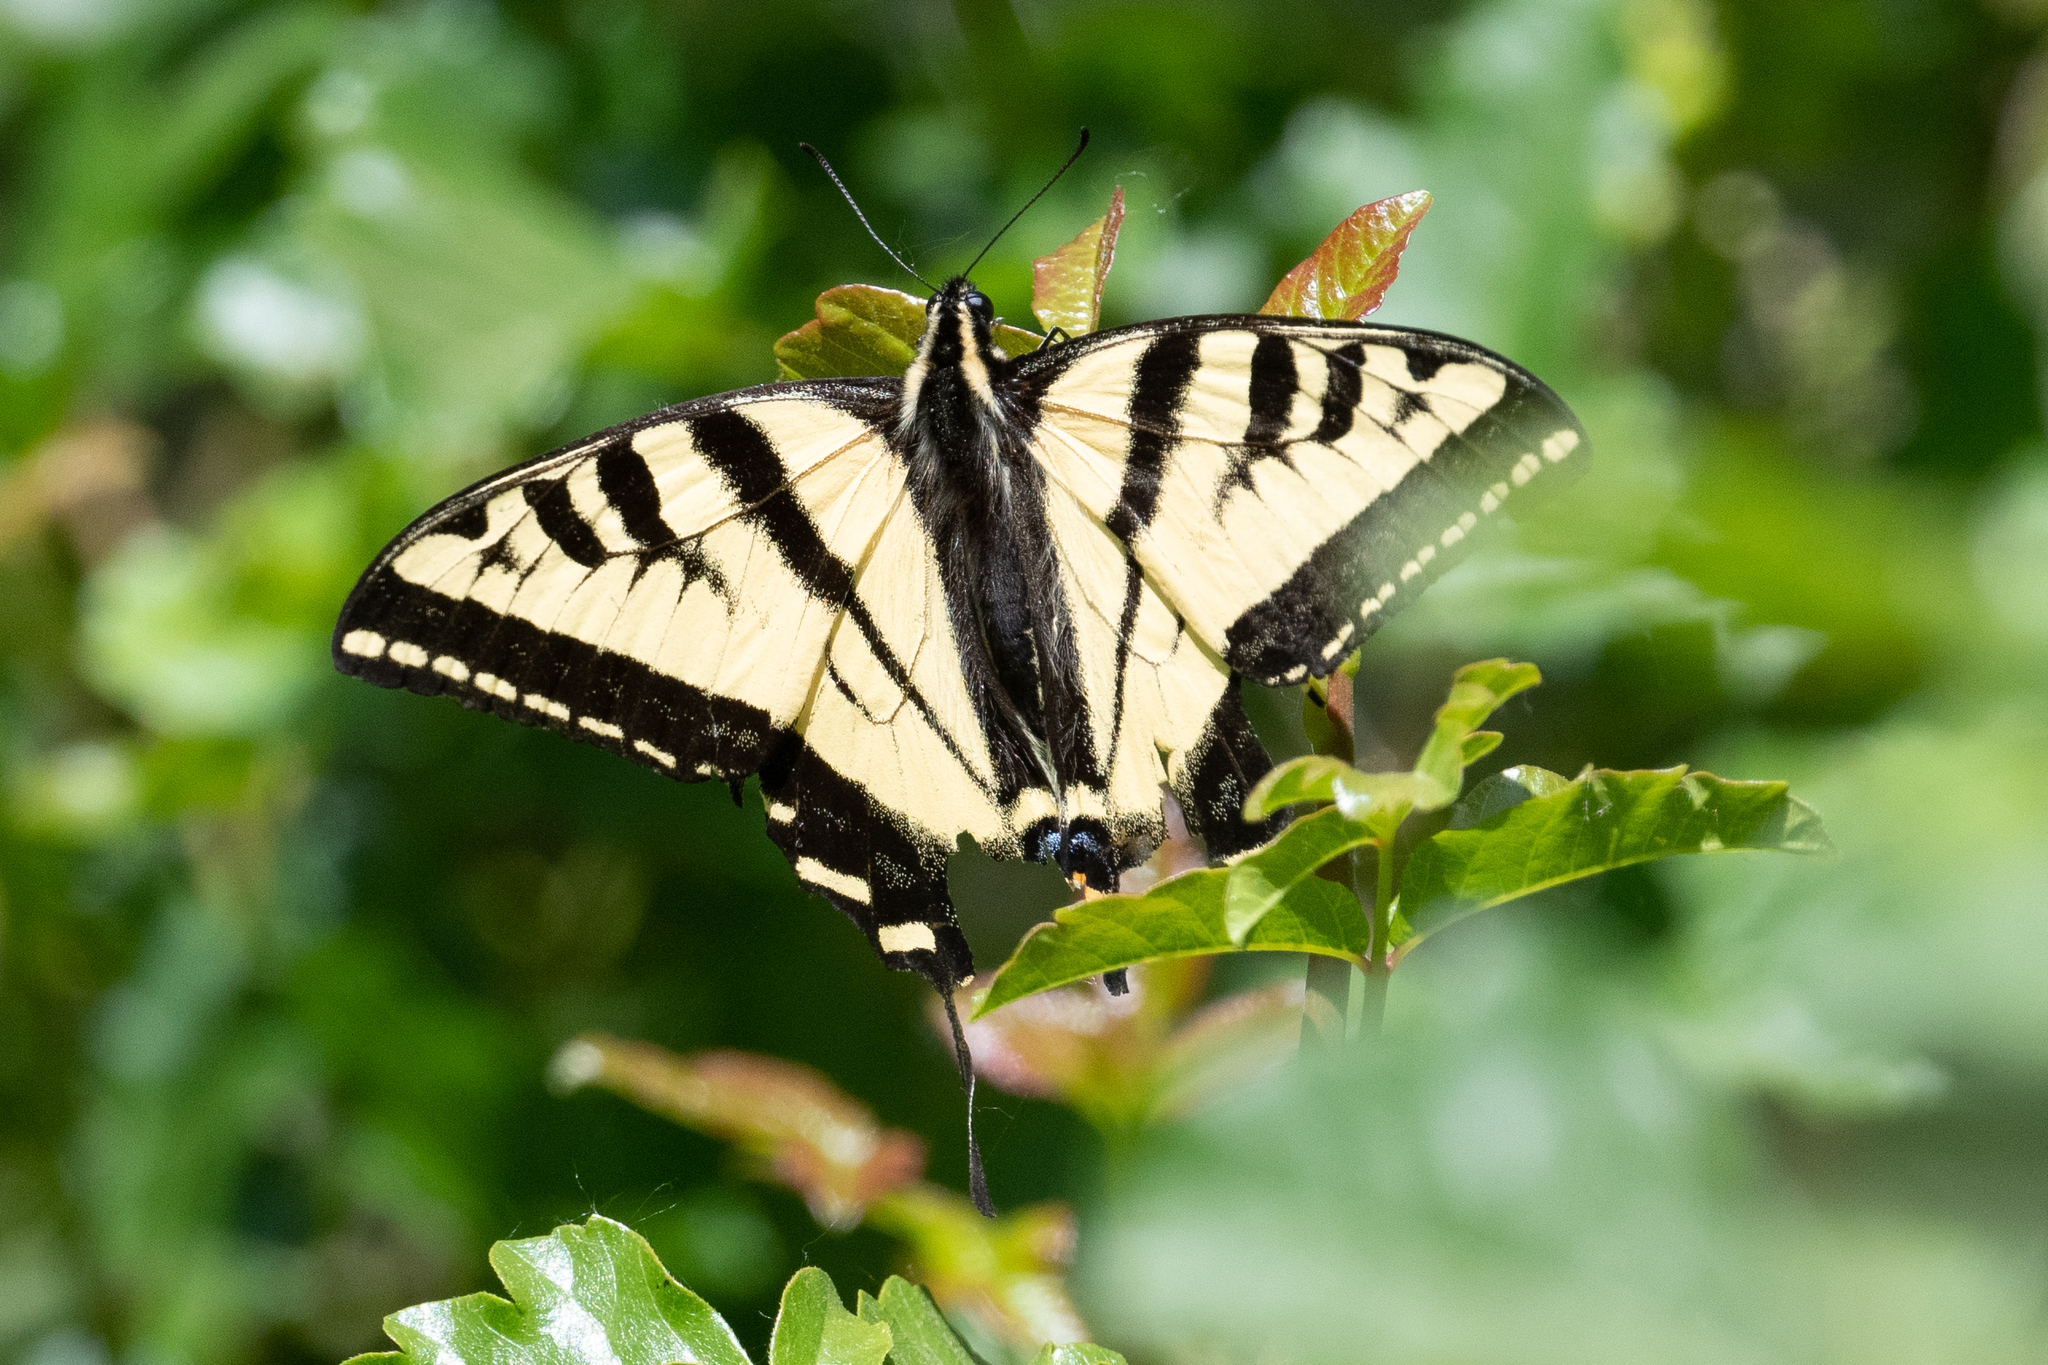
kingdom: Animalia
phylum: Arthropoda
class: Insecta
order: Lepidoptera
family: Papilionidae
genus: Papilio
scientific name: Papilio rutulus
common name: Western tiger swallowtail
